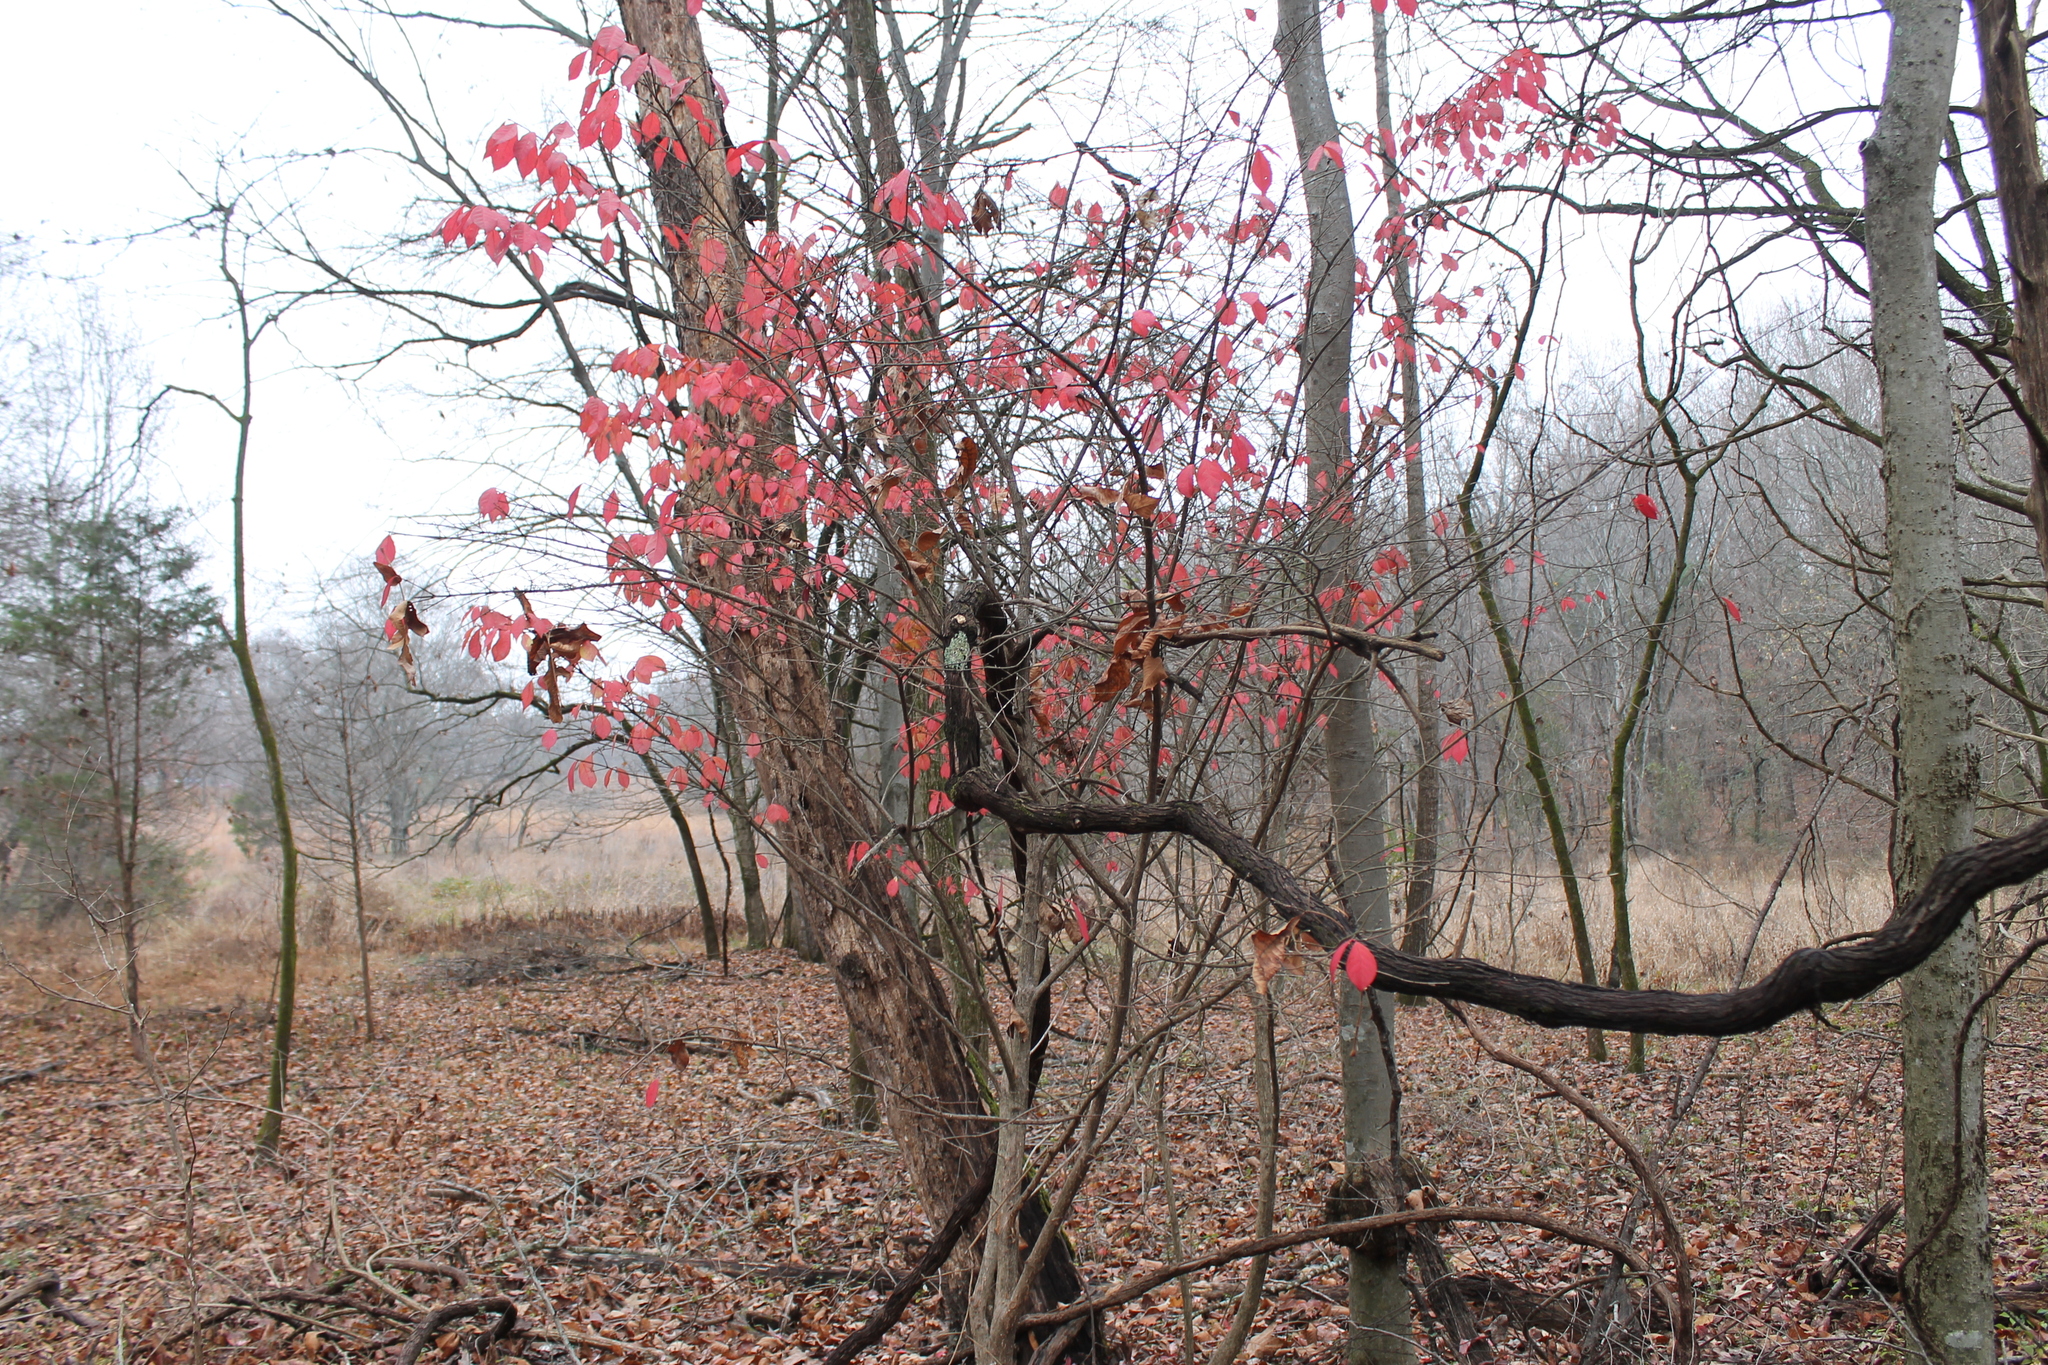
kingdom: Plantae
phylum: Tracheophyta
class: Magnoliopsida
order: Celastrales
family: Celastraceae
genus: Euonymus
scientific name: Euonymus alatus
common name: Winged euonymus
